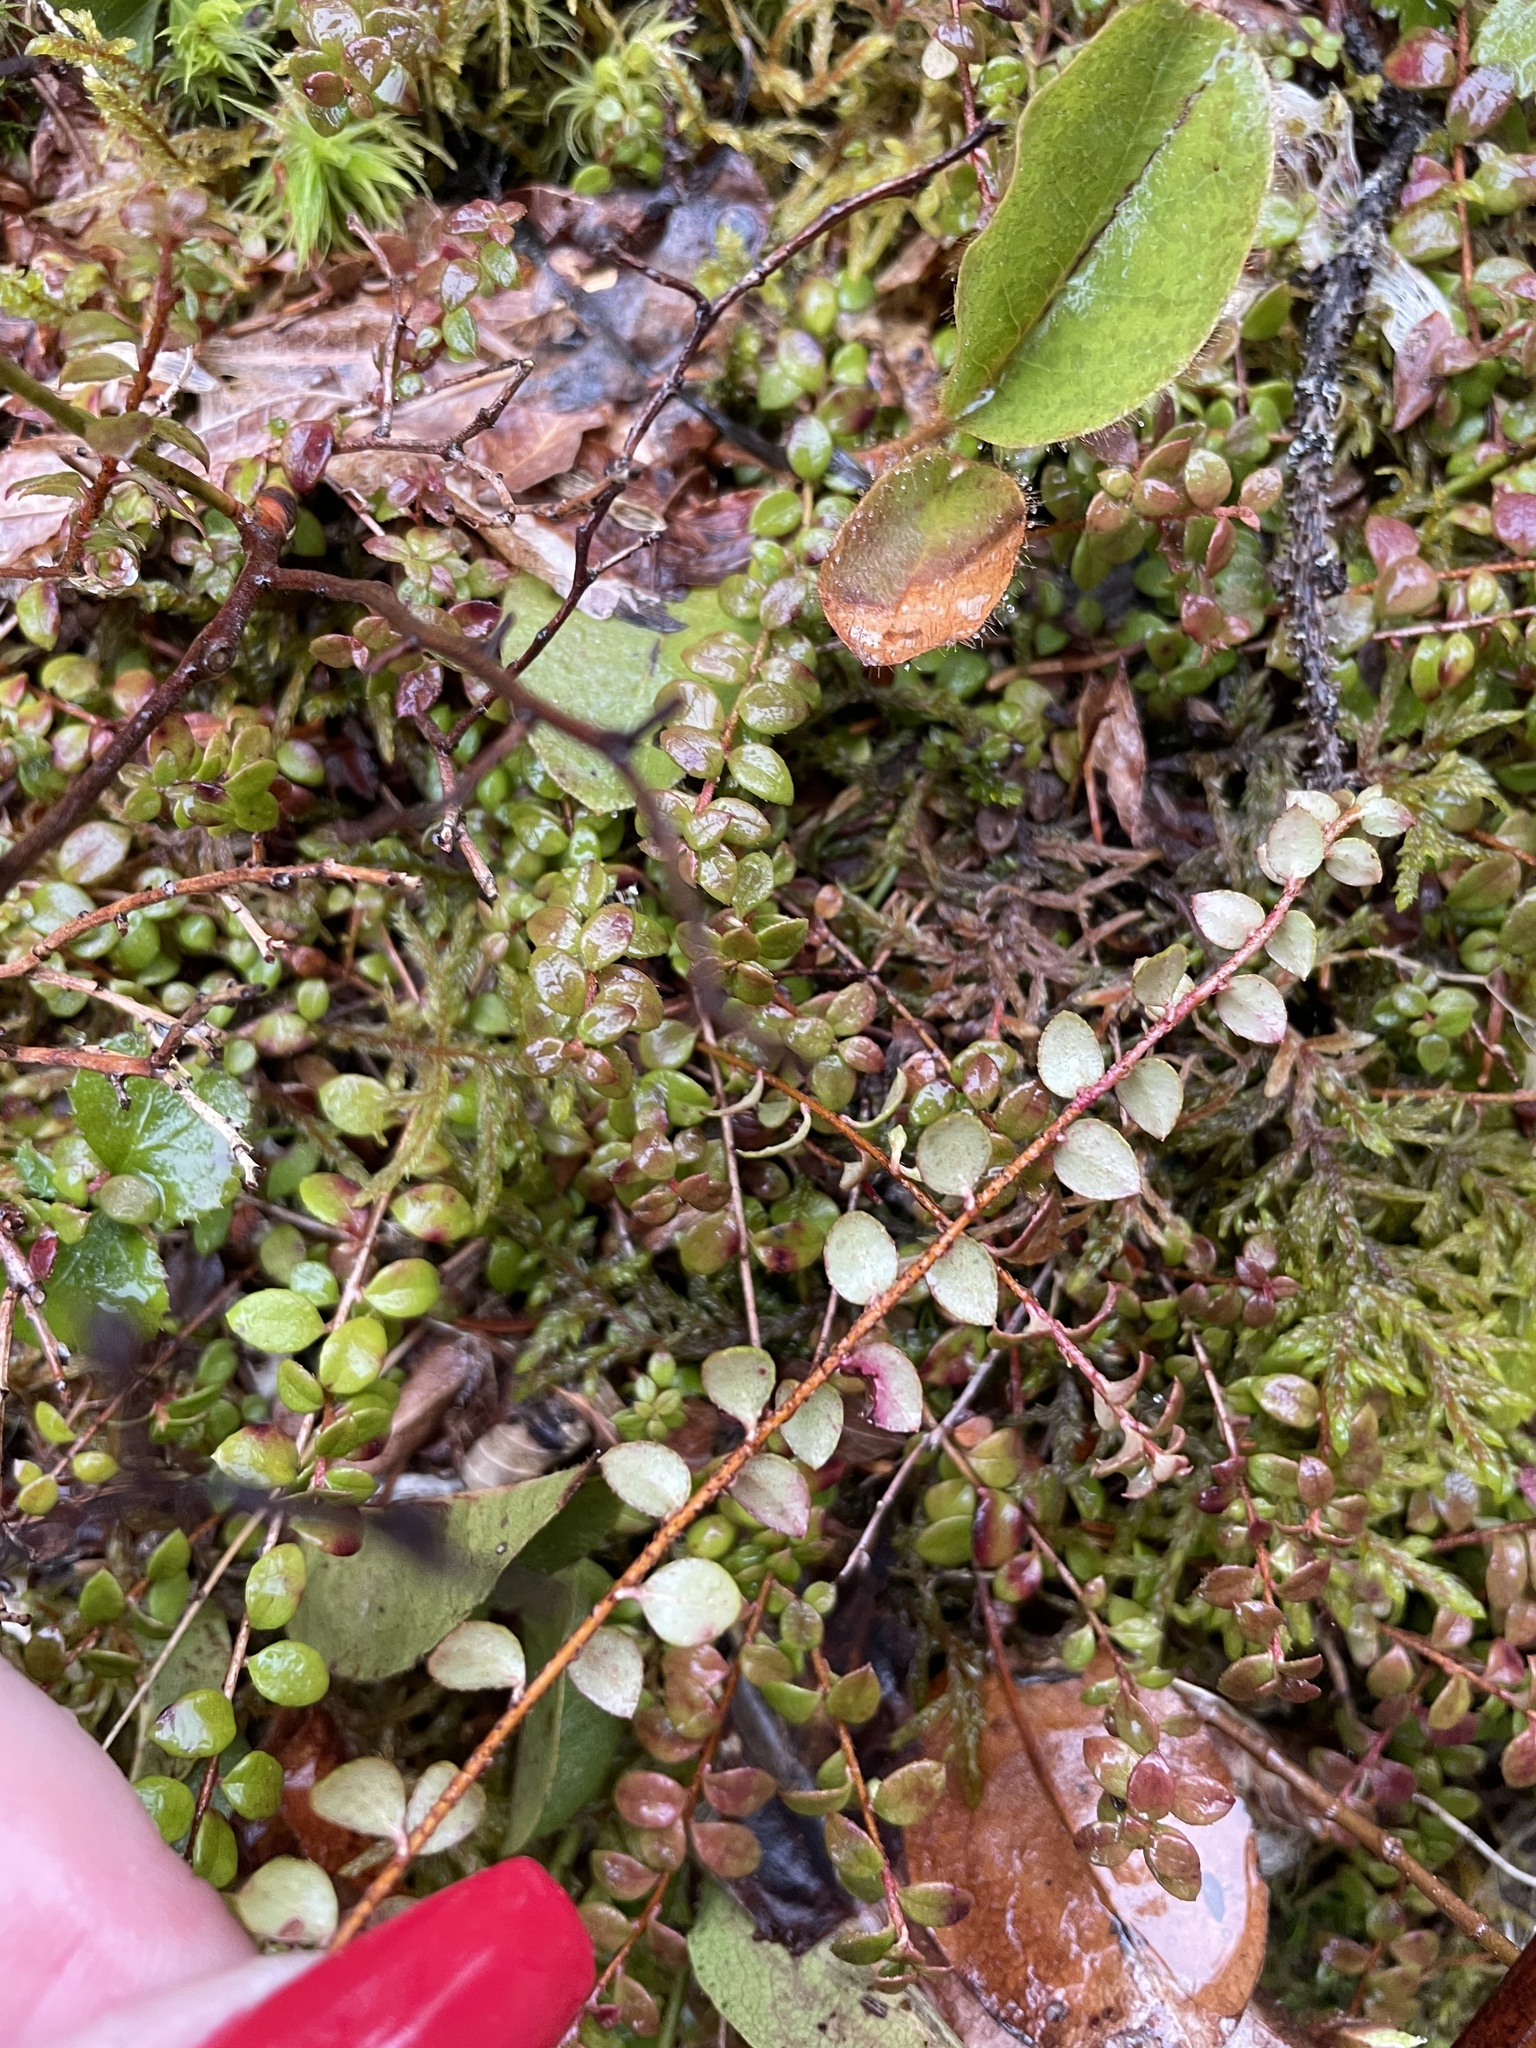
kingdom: Plantae
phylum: Tracheophyta
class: Magnoliopsida
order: Ericales
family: Ericaceae
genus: Gaultheria
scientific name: Gaultheria hispidula
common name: Cancer wintergreen
